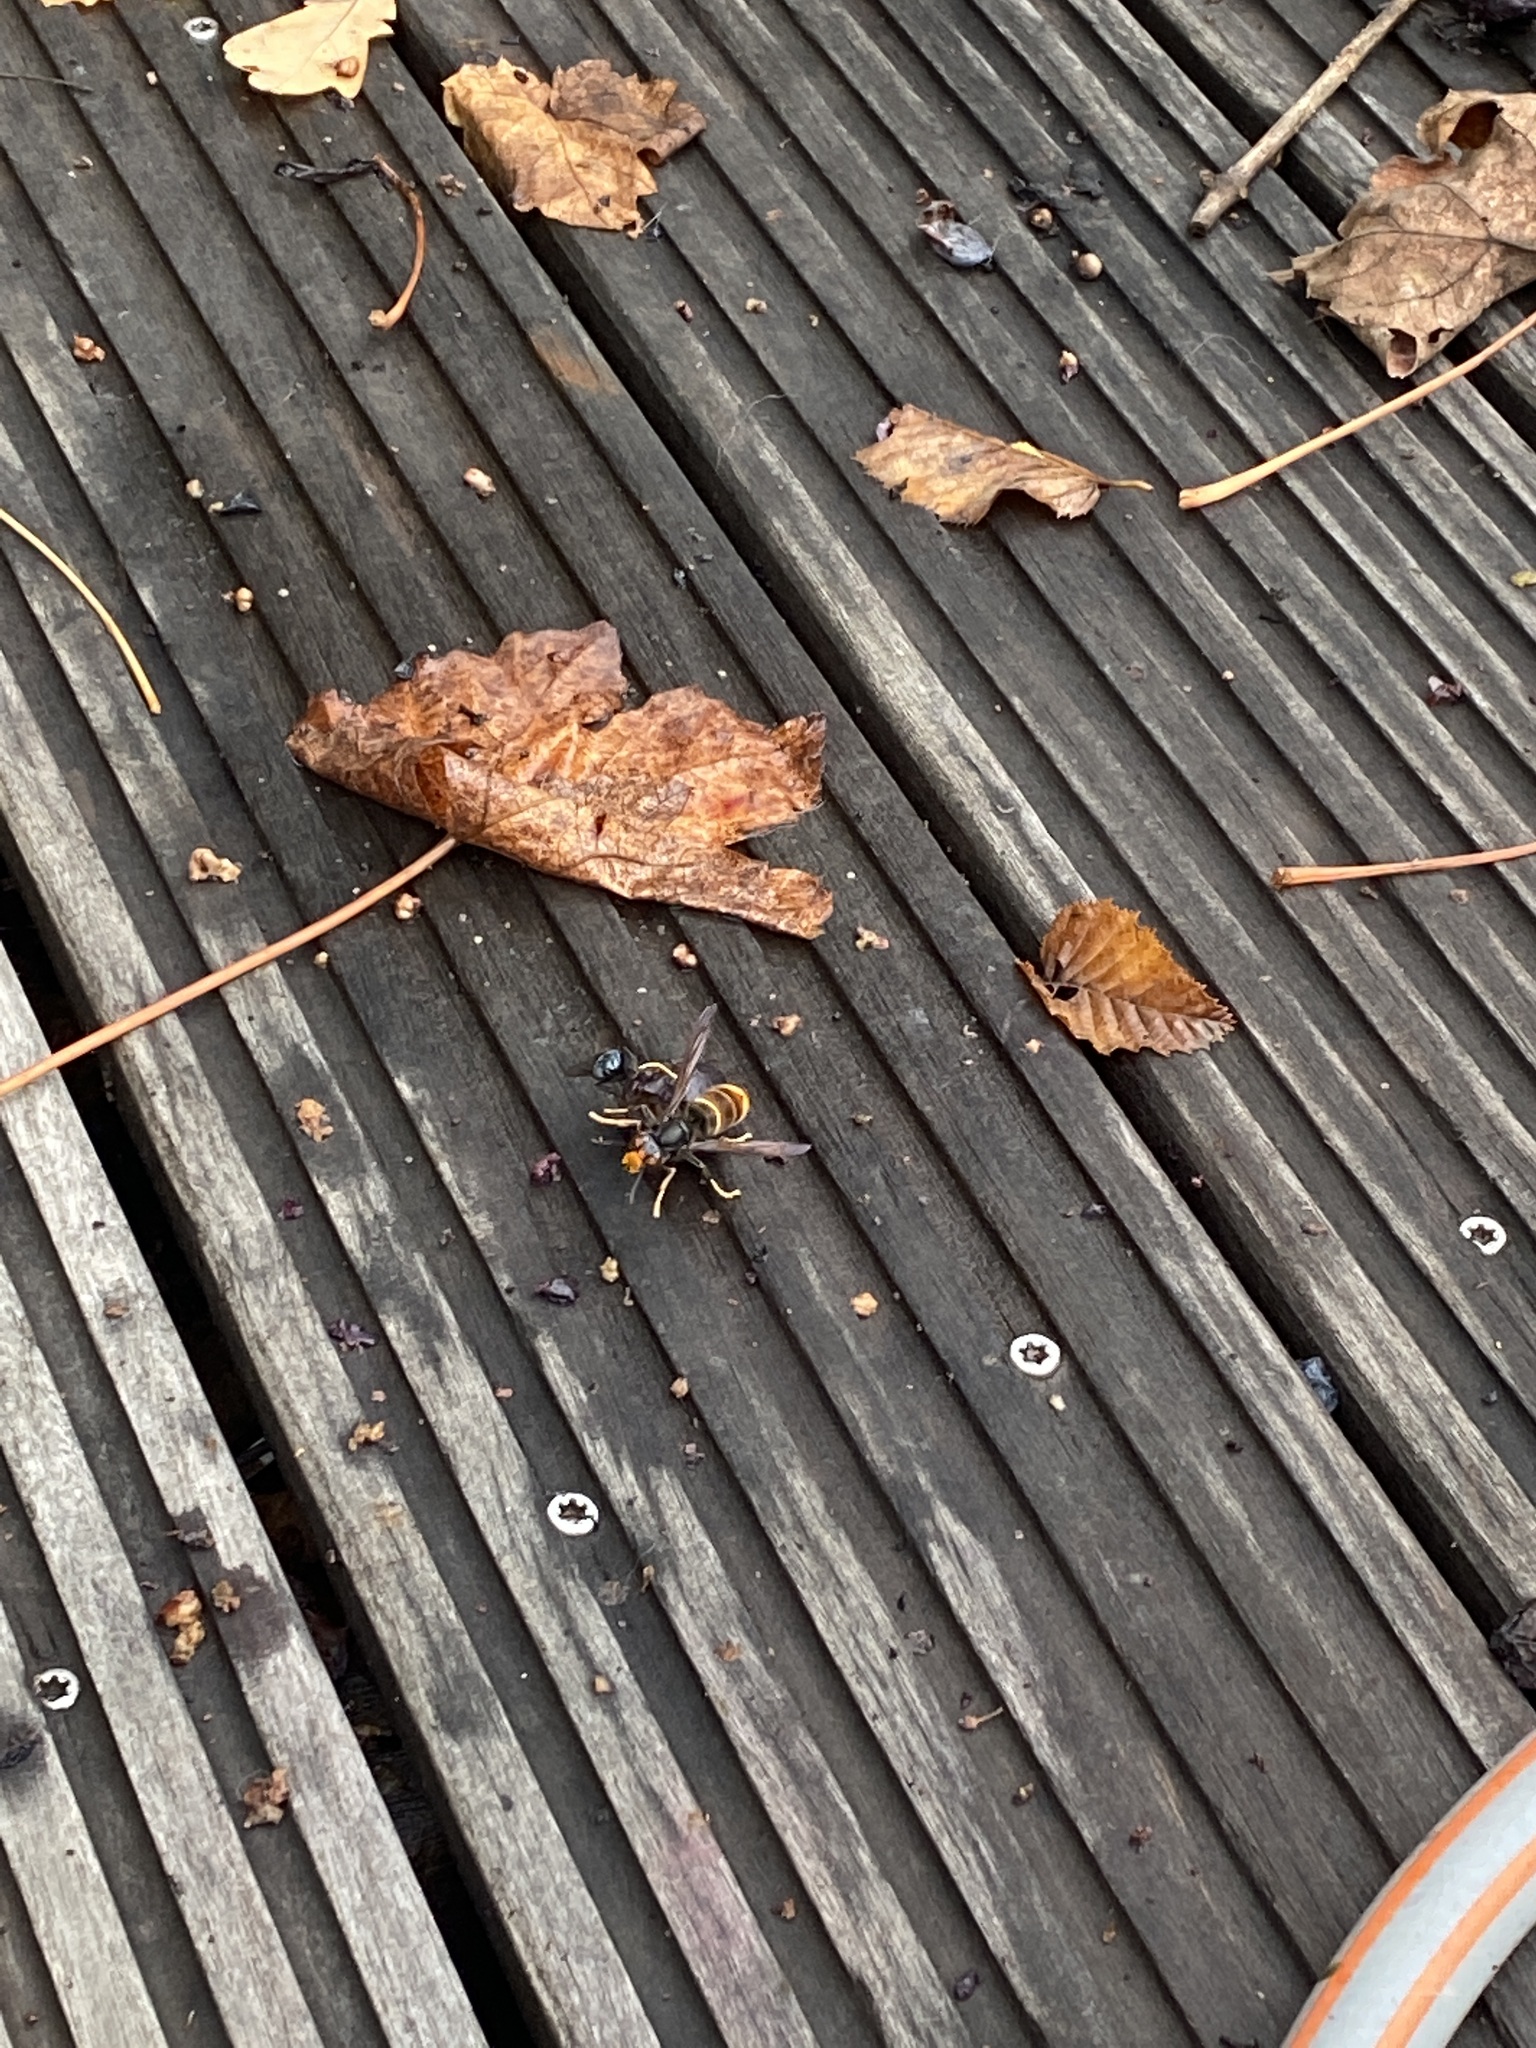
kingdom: Animalia
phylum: Arthropoda
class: Insecta
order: Hymenoptera
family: Vespidae
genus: Vespa
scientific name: Vespa velutina
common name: Asian hornet
